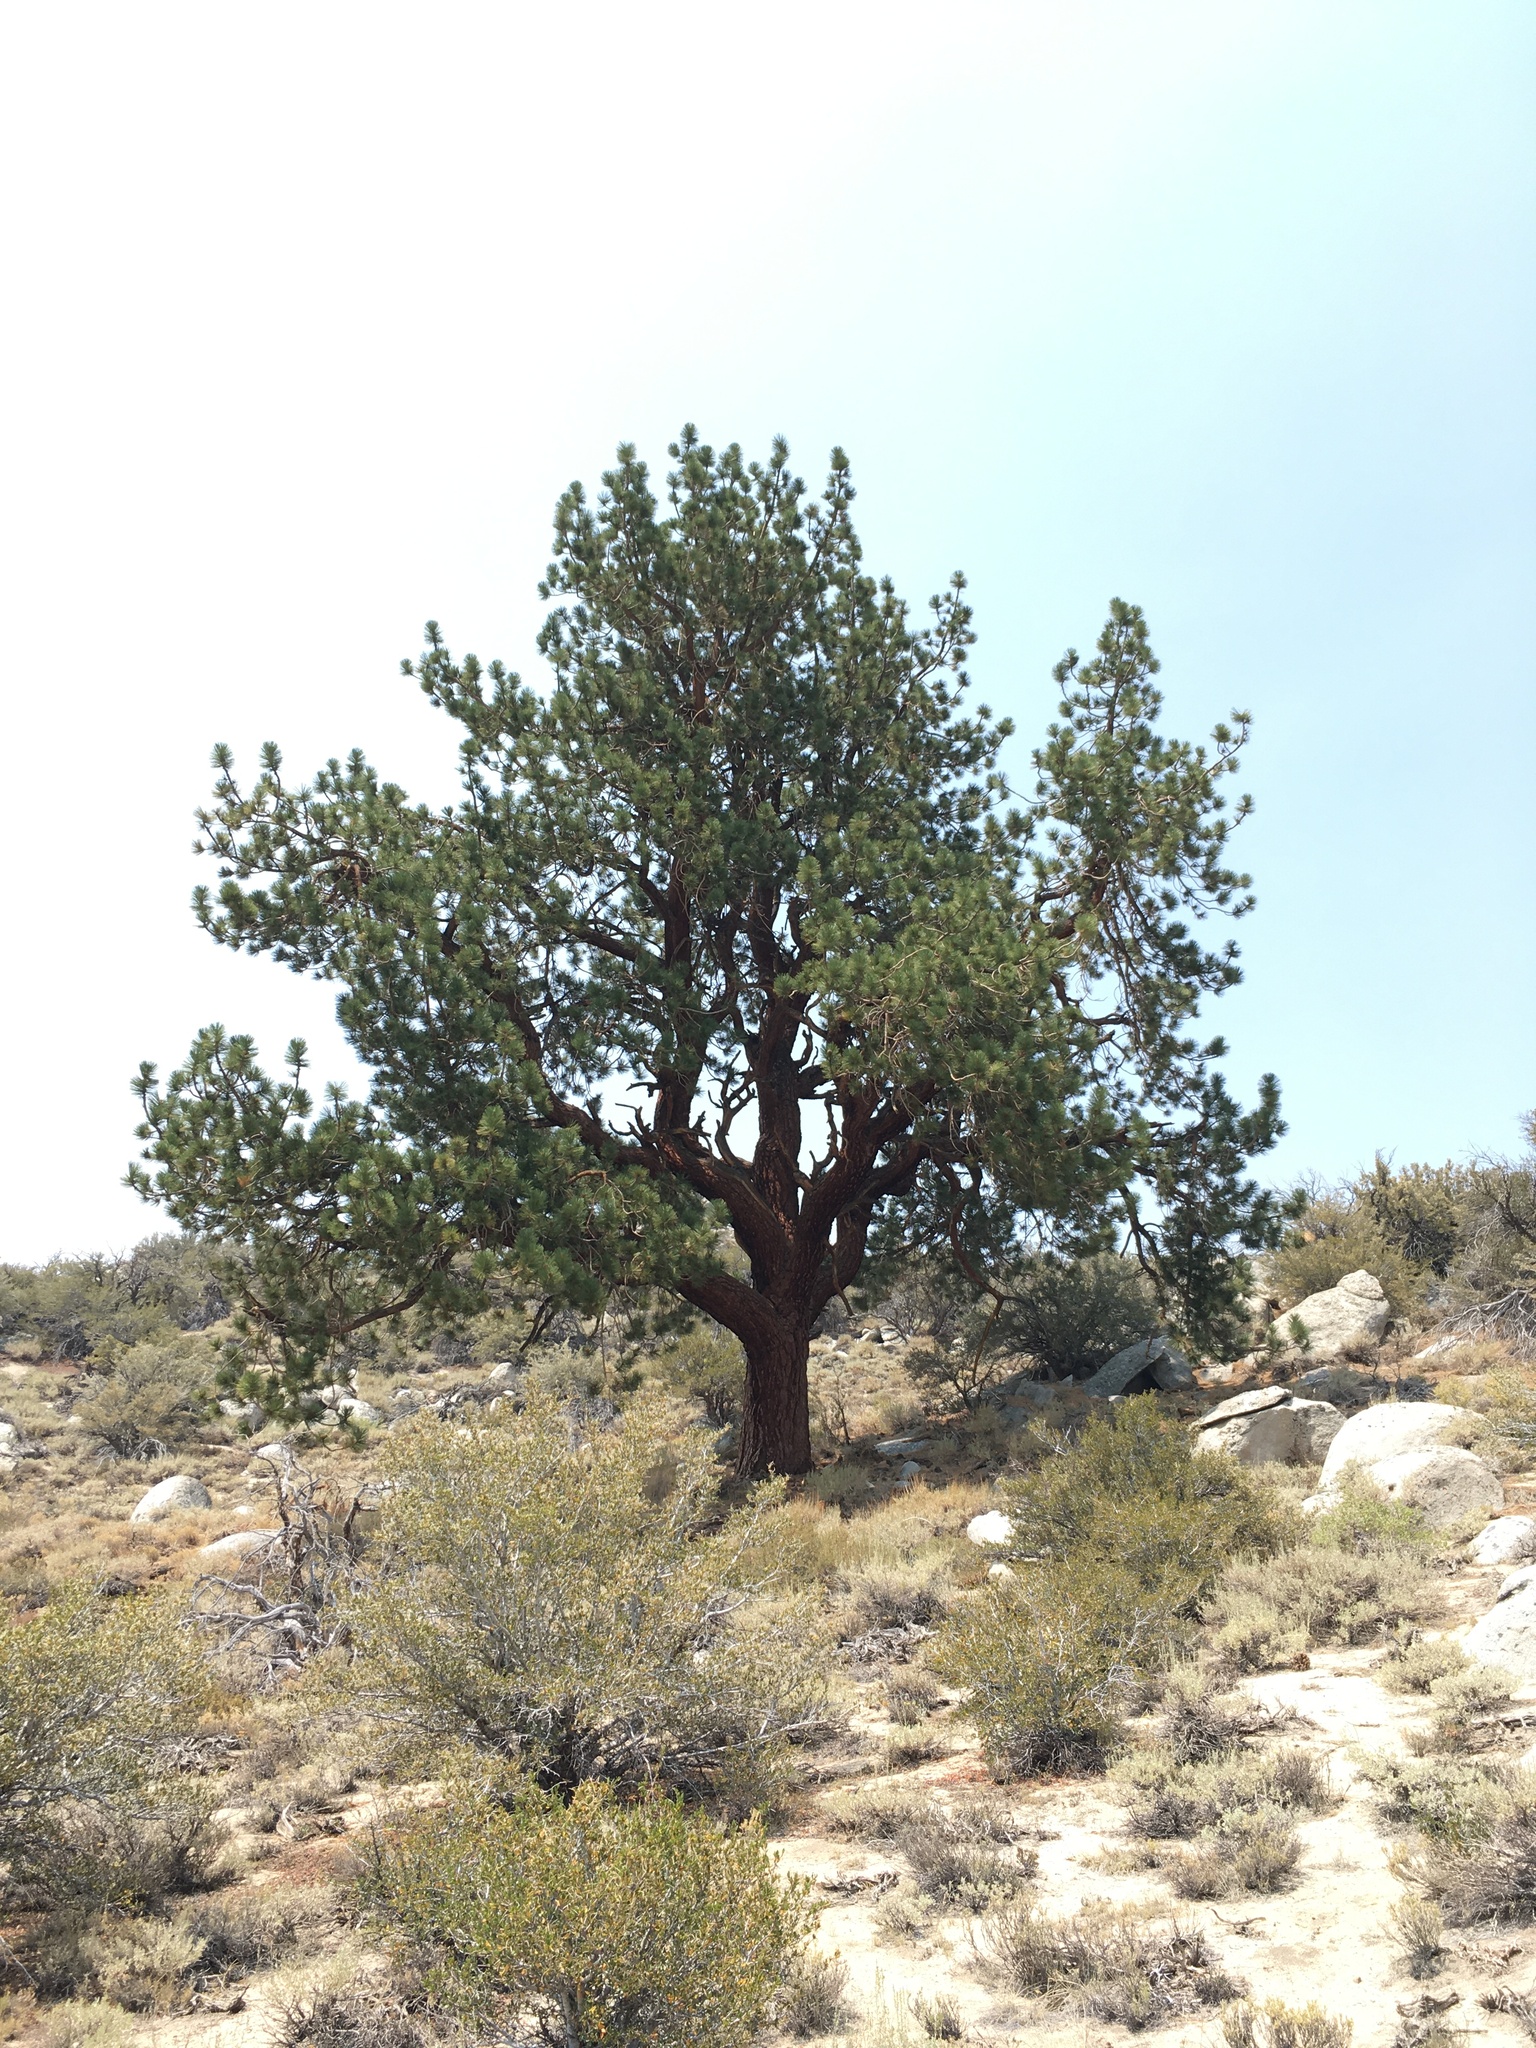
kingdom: Plantae
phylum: Tracheophyta
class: Pinopsida
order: Pinales
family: Pinaceae
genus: Pinus
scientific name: Pinus jeffreyi
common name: Jeffrey pine
